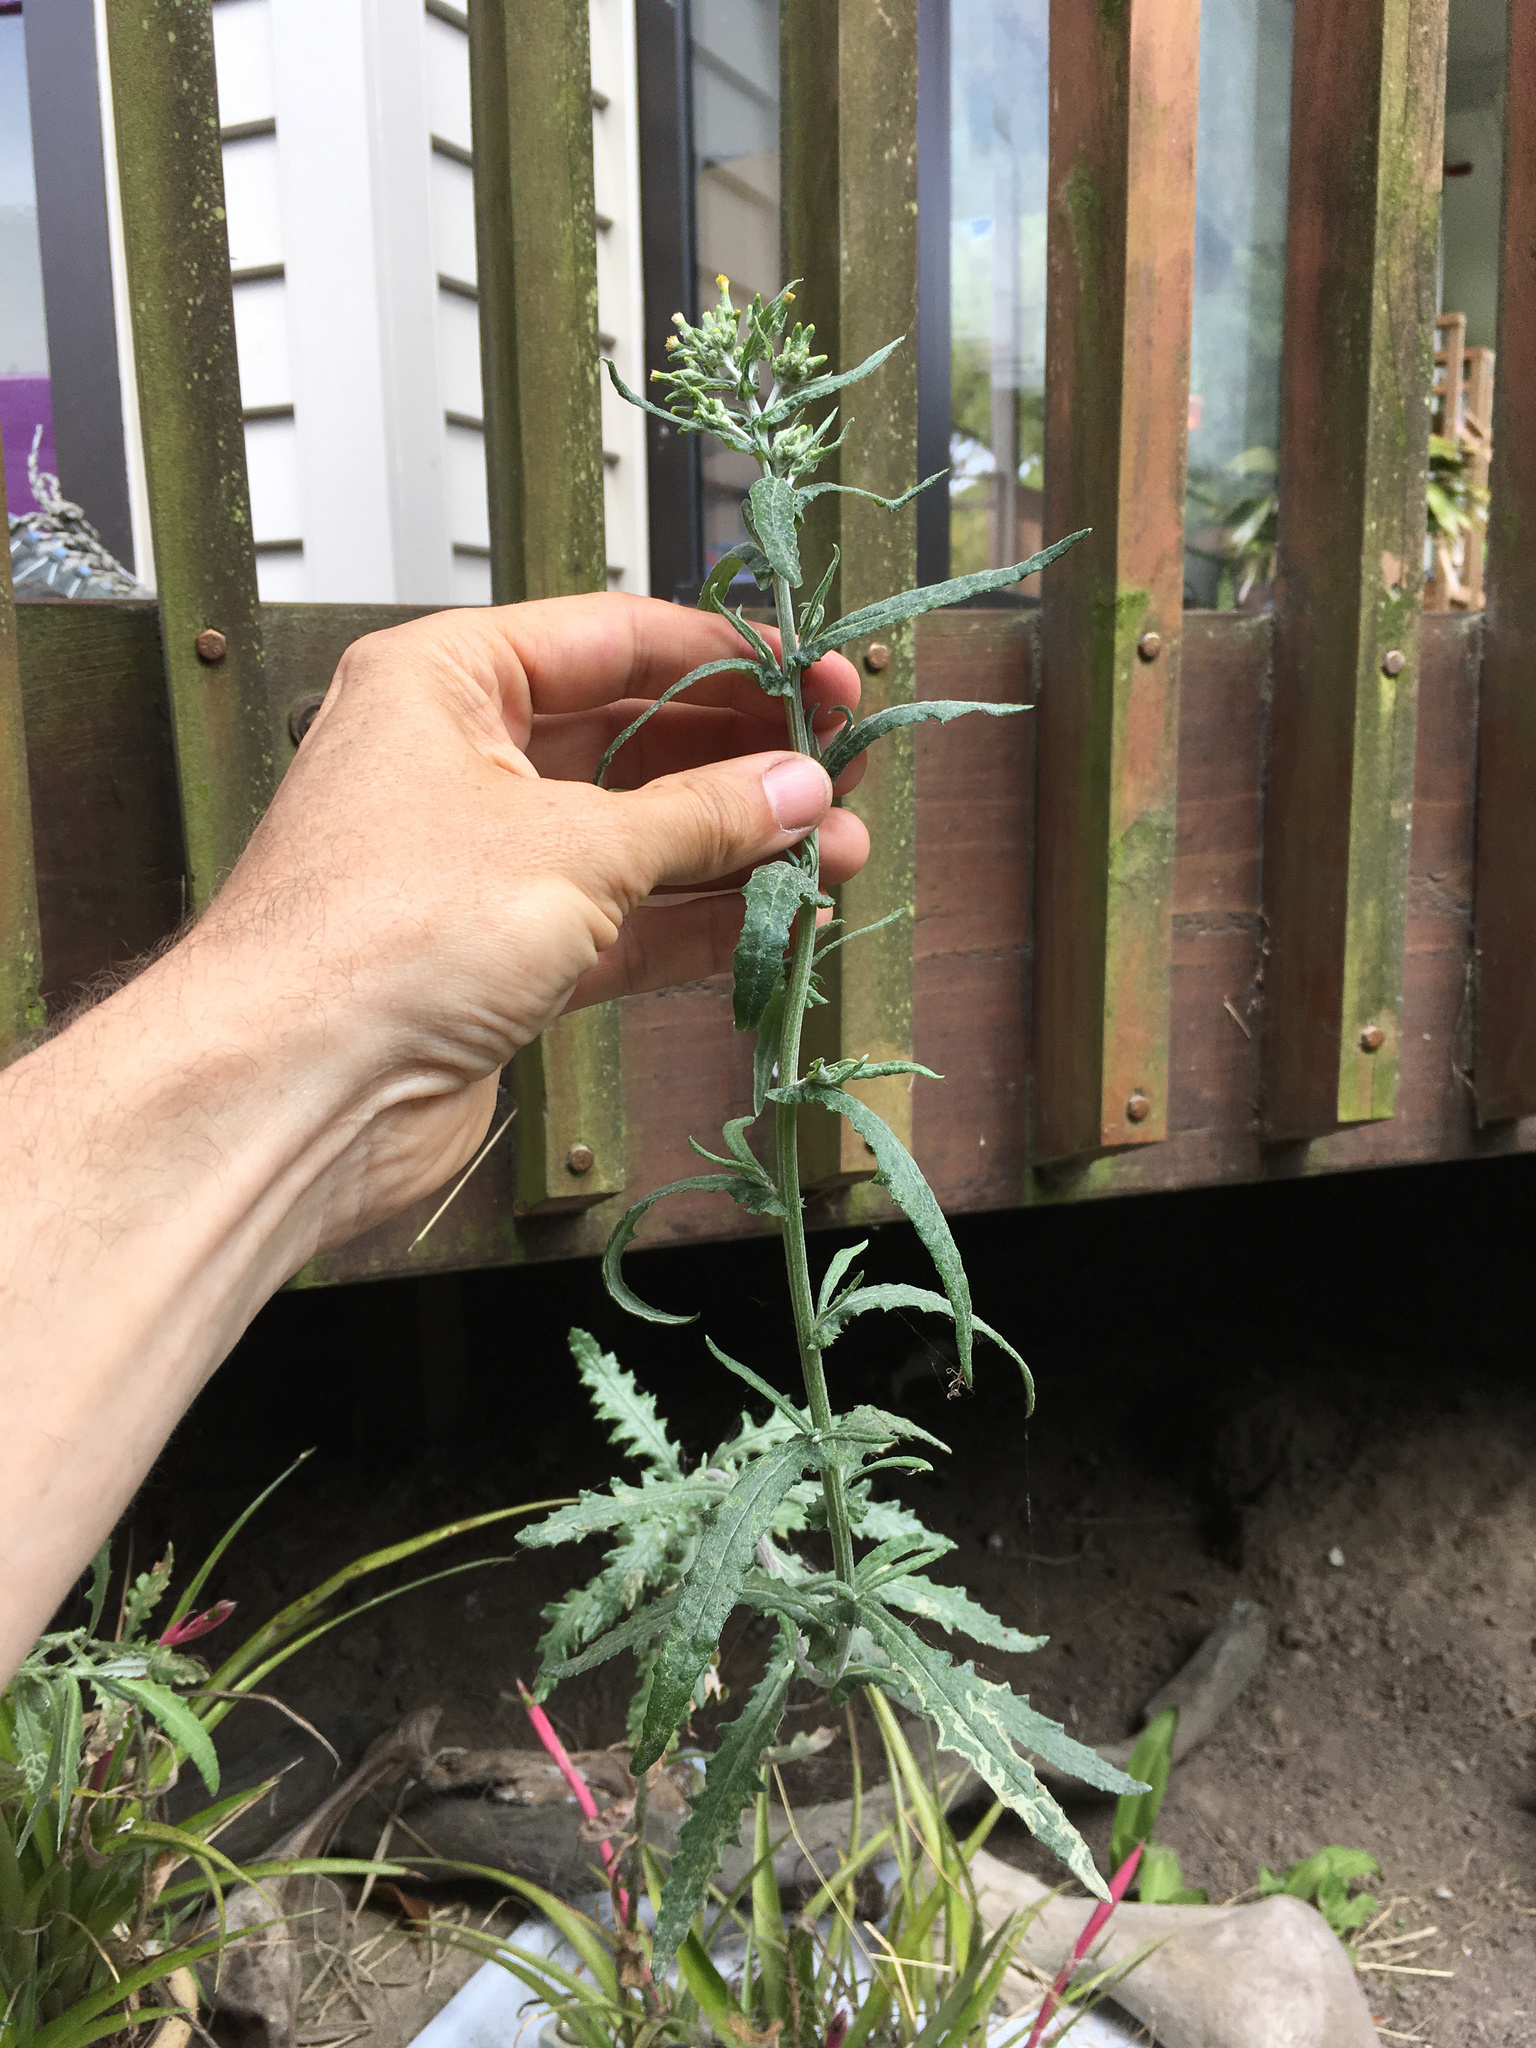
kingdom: Plantae
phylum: Tracheophyta
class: Magnoliopsida
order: Asterales
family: Asteraceae
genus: Senecio
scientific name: Senecio glomeratus
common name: Cutleaf burnweed
